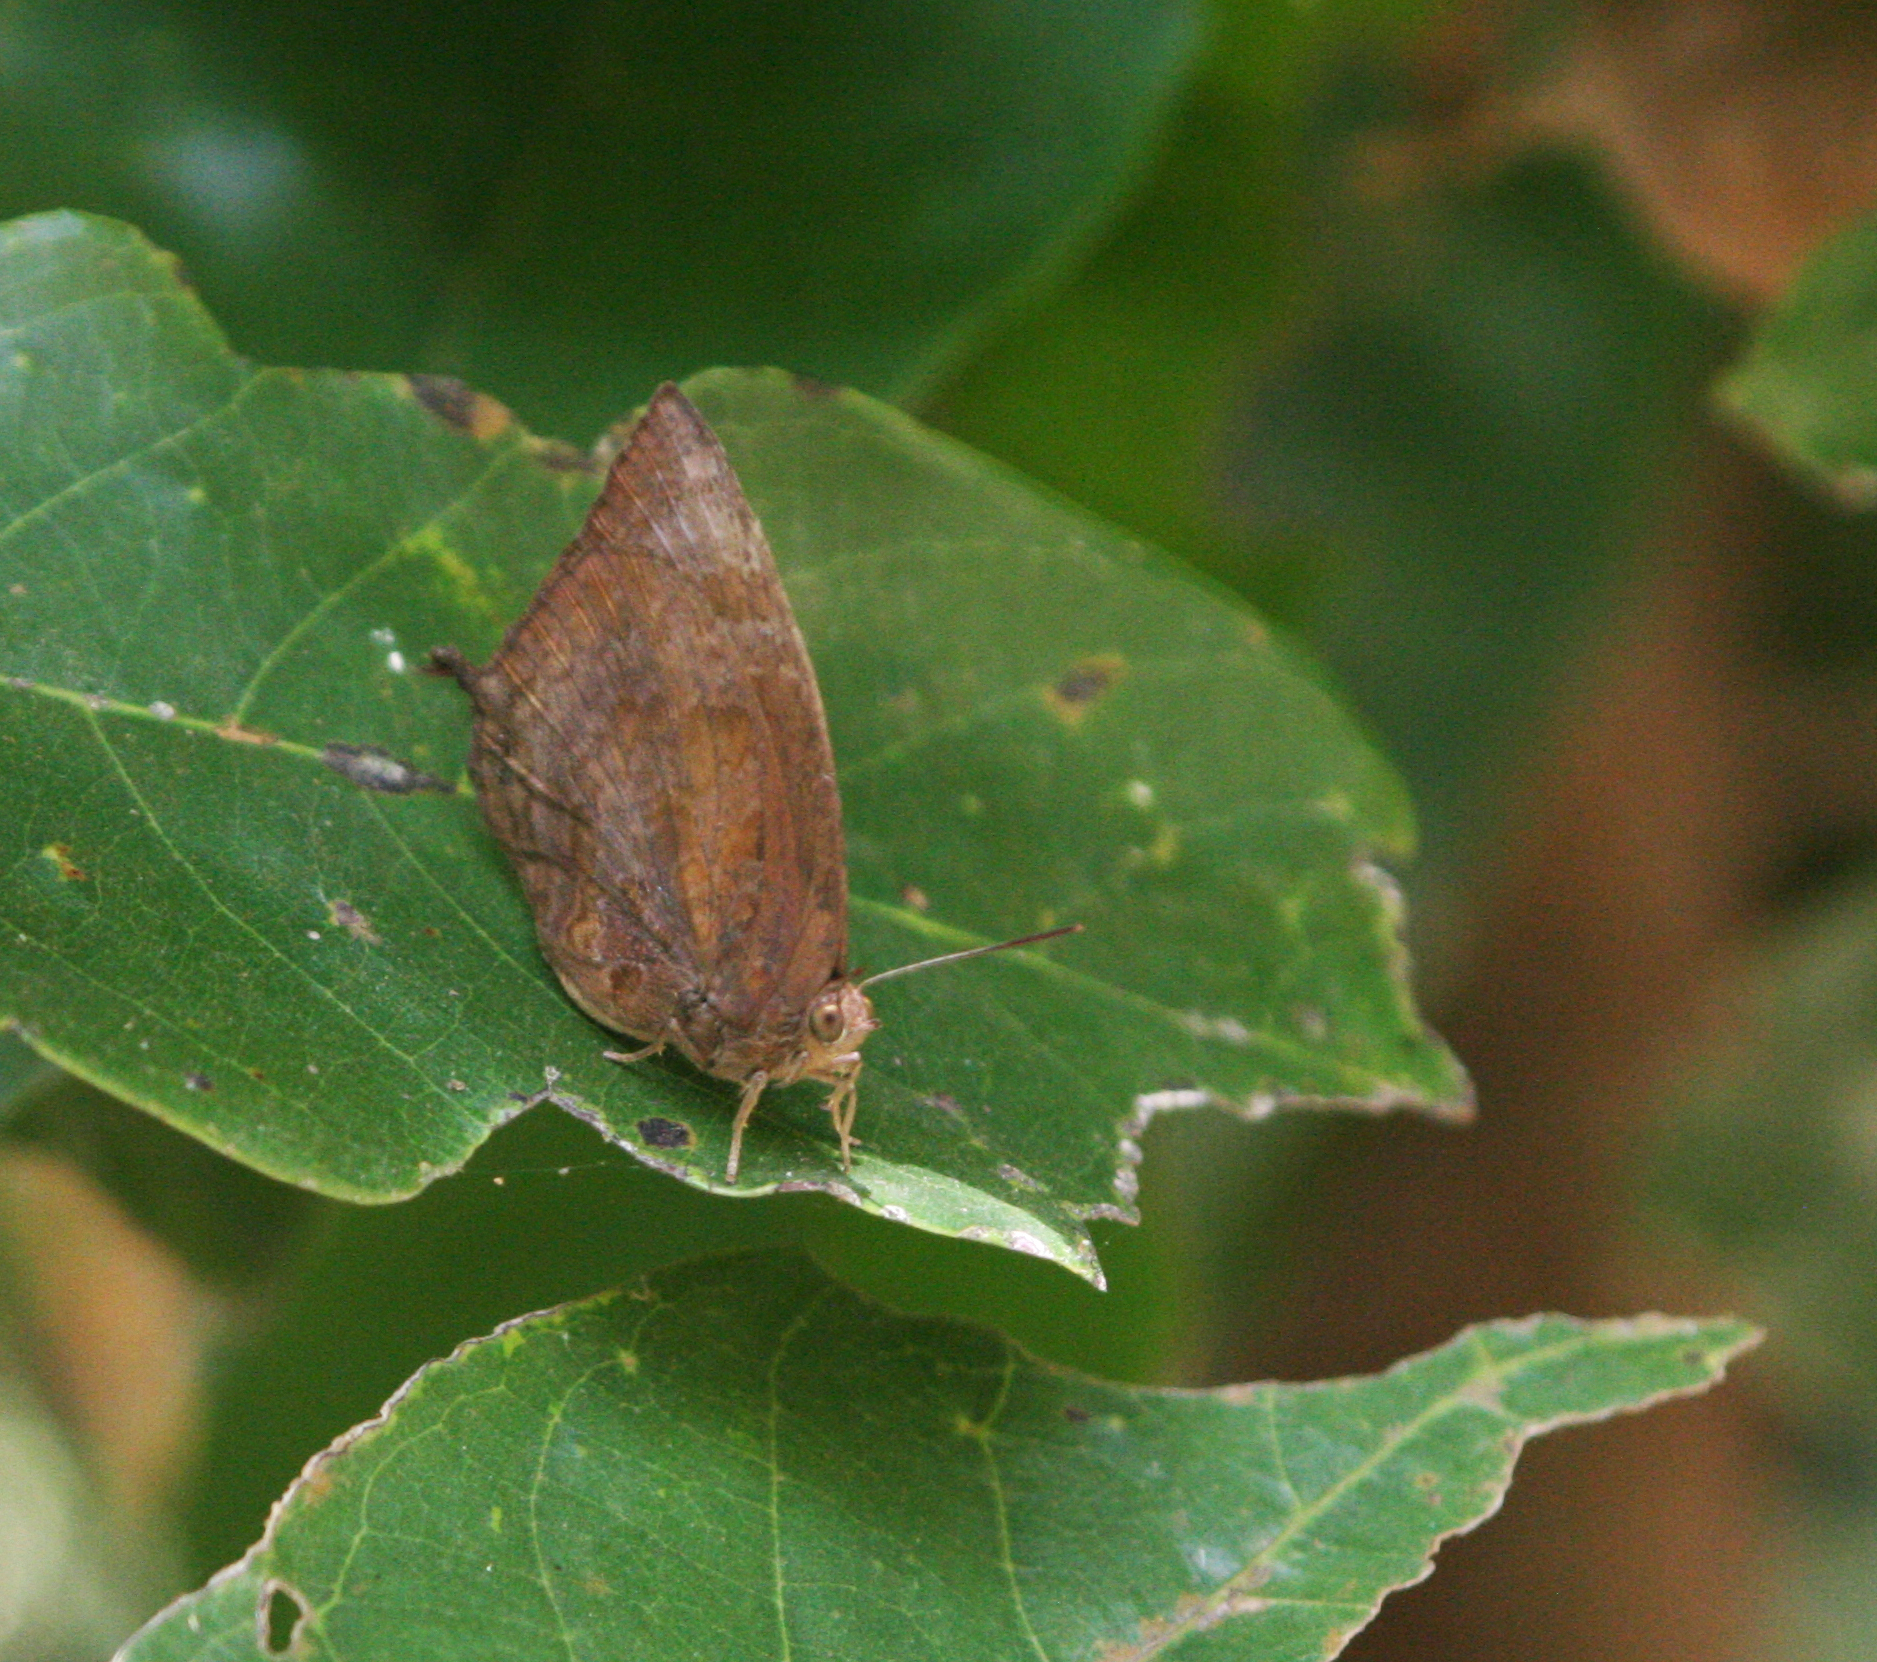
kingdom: Animalia
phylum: Arthropoda
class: Insecta
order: Lepidoptera
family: Lycaenidae
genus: Arhopala
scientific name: Arhopala centaurus
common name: Dull oak-blue
